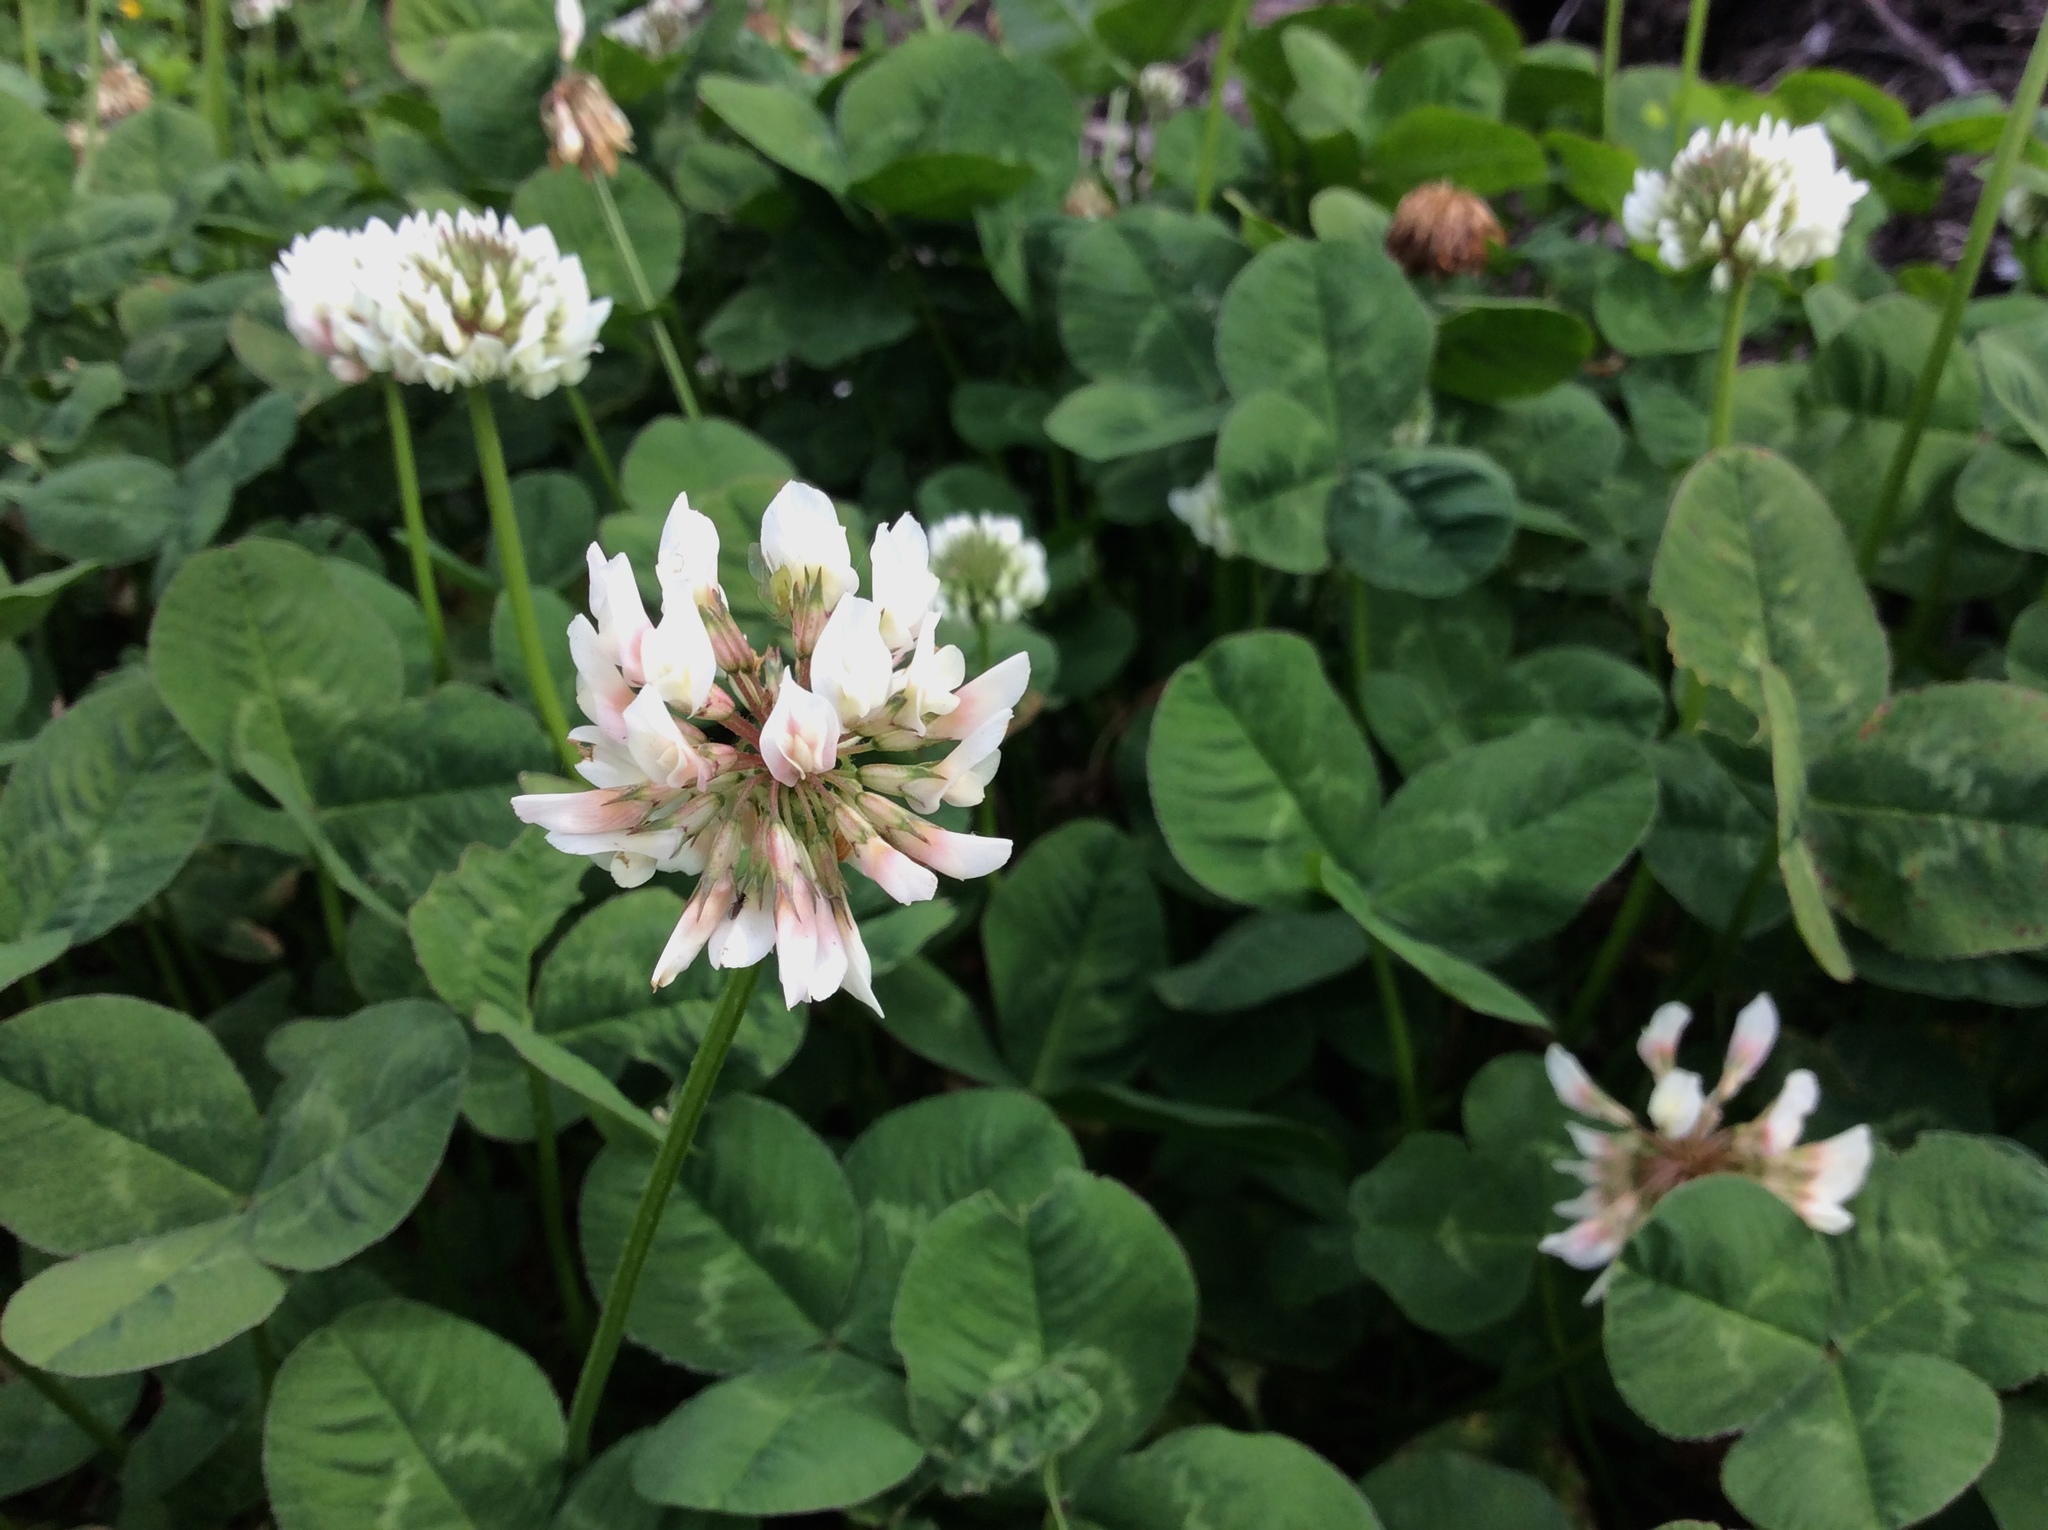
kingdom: Plantae
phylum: Tracheophyta
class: Magnoliopsida
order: Fabales
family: Fabaceae
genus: Trifolium
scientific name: Trifolium repens
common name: White clover
